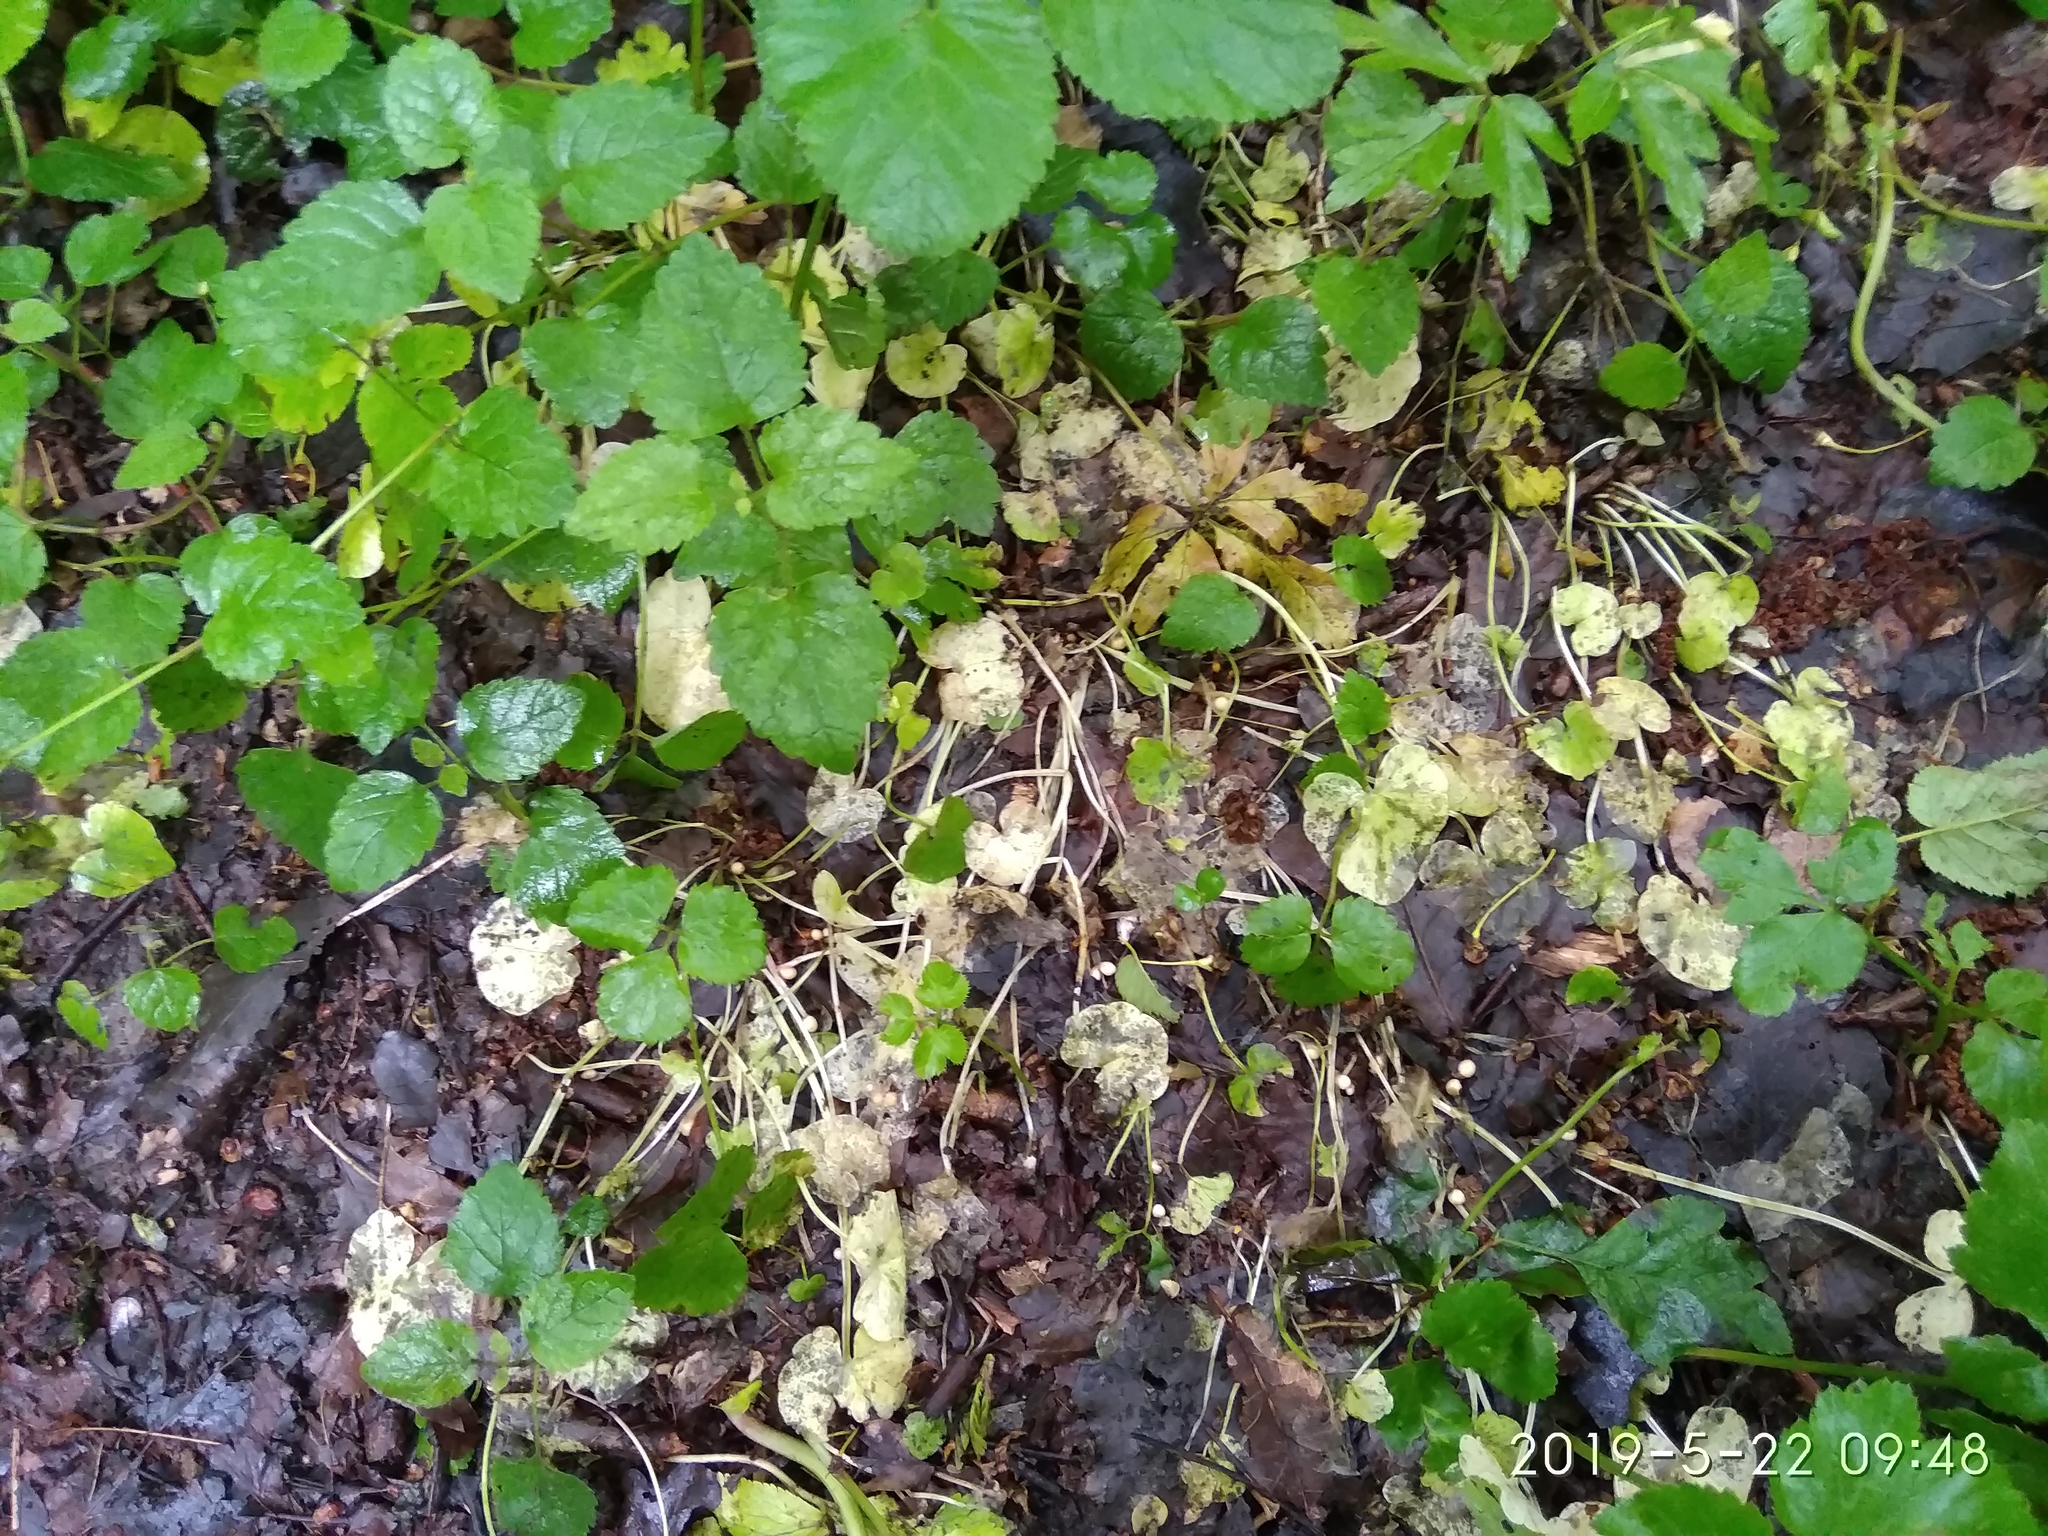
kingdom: Plantae
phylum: Tracheophyta
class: Magnoliopsida
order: Ranunculales
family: Ranunculaceae
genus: Ficaria
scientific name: Ficaria verna
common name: Lesser celandine
